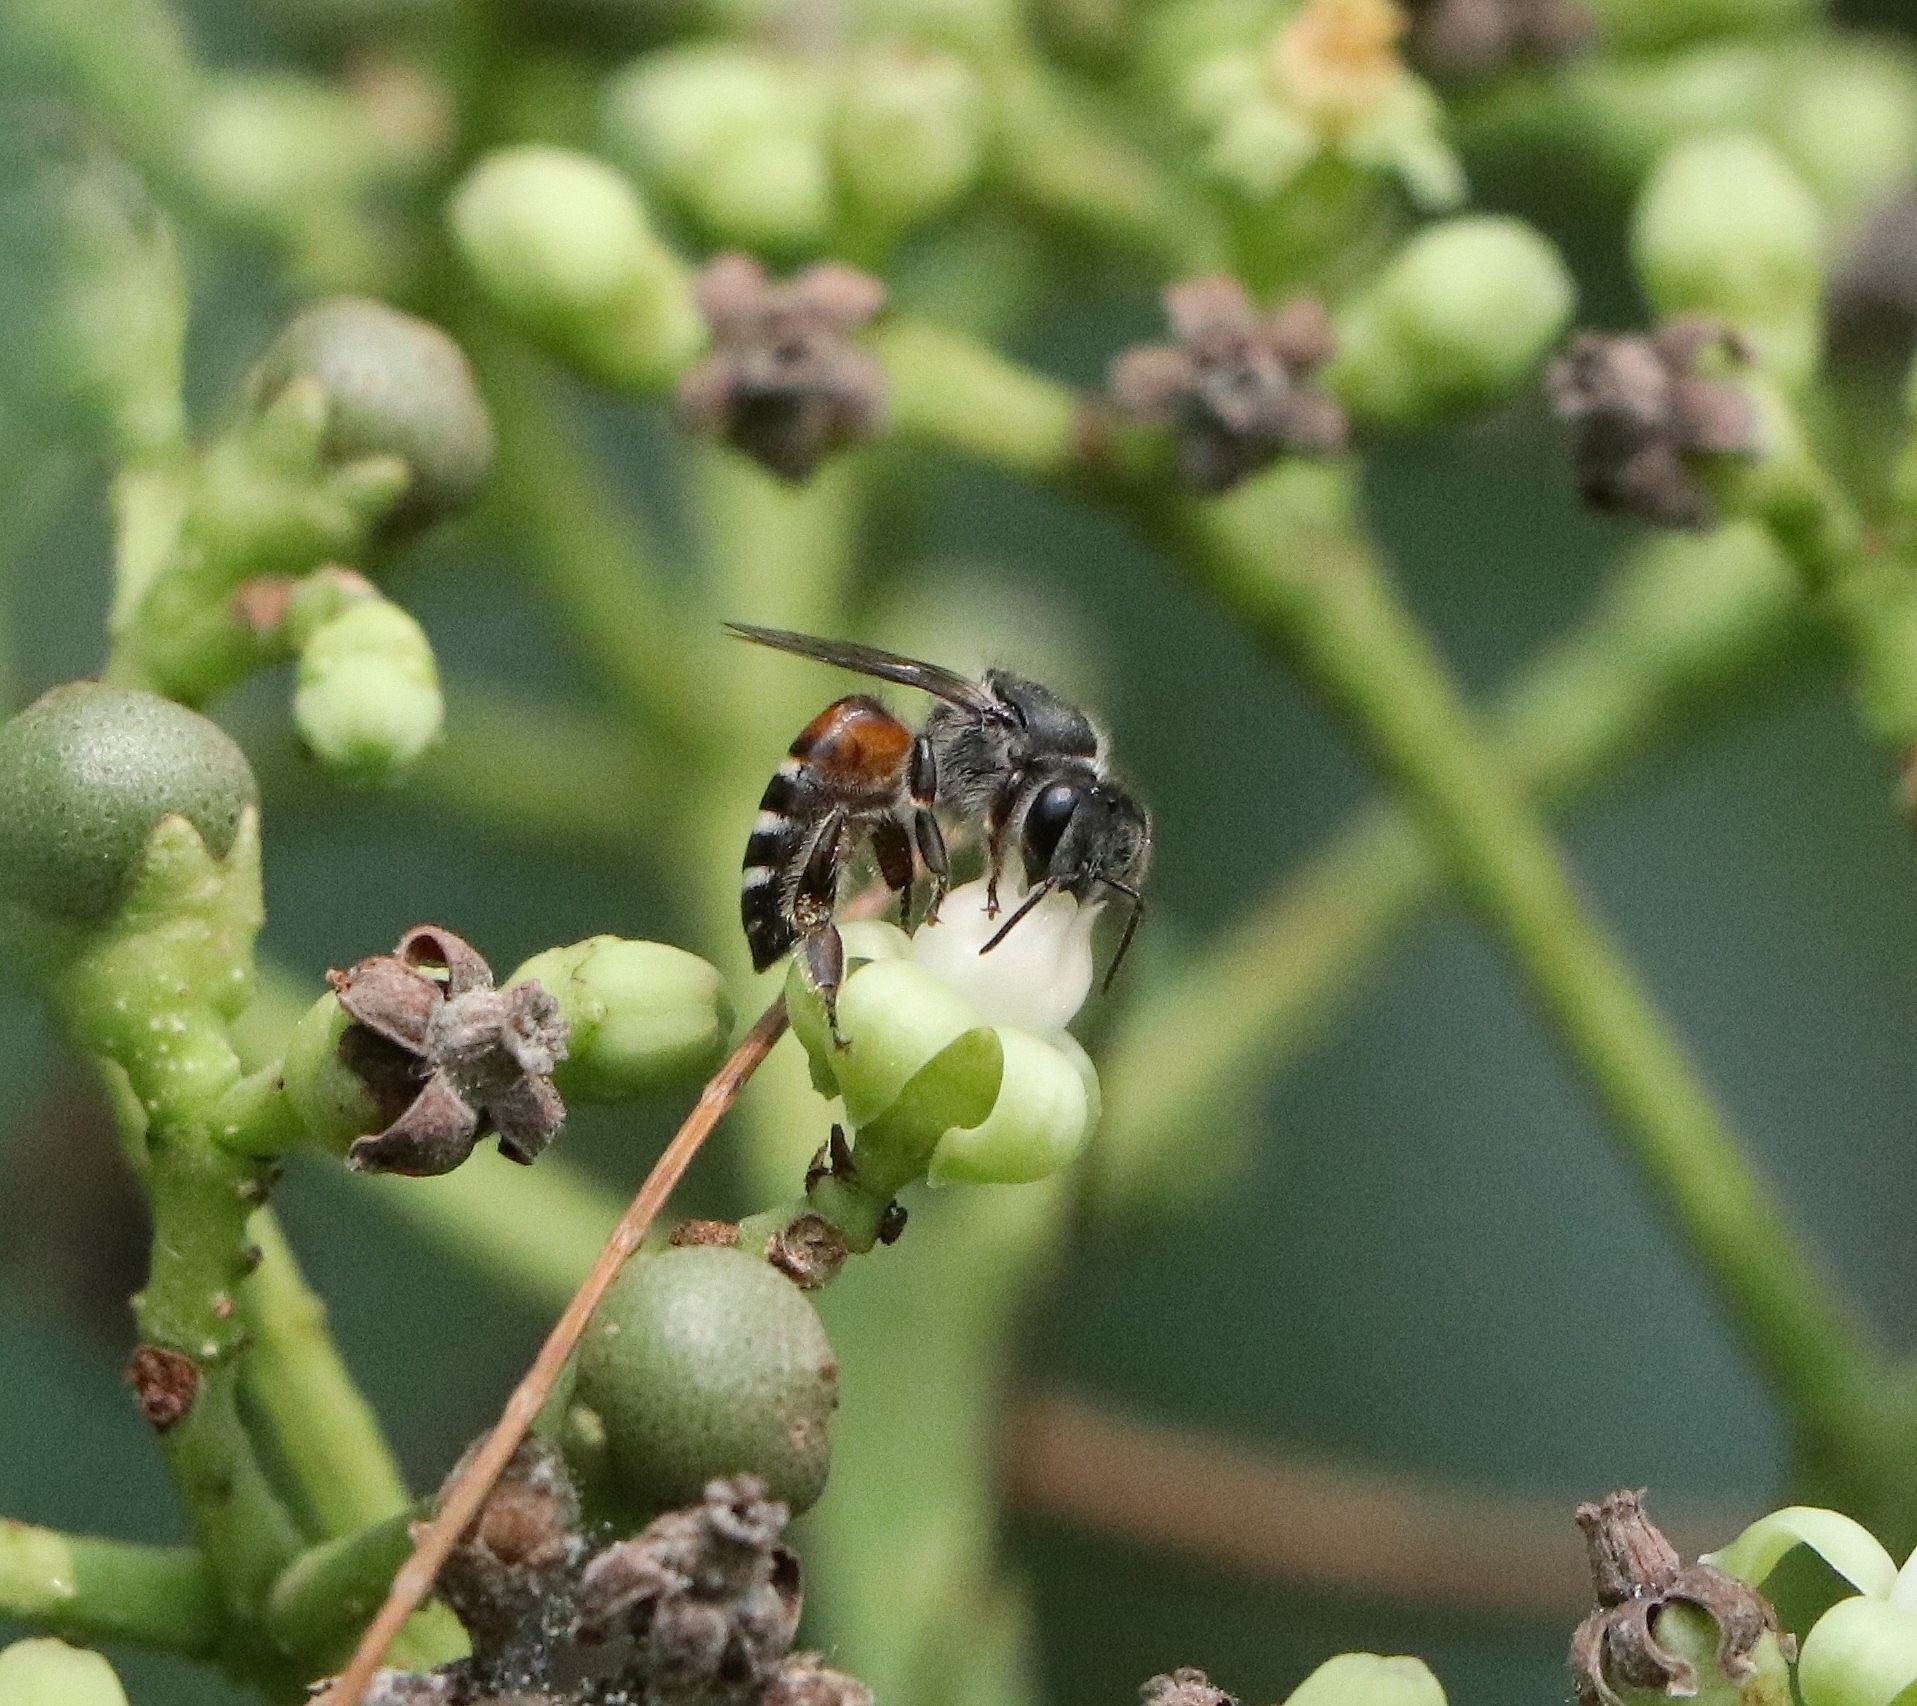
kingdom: Animalia
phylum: Arthropoda
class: Insecta
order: Hymenoptera
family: Apidae
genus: Apis
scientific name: Apis florea
